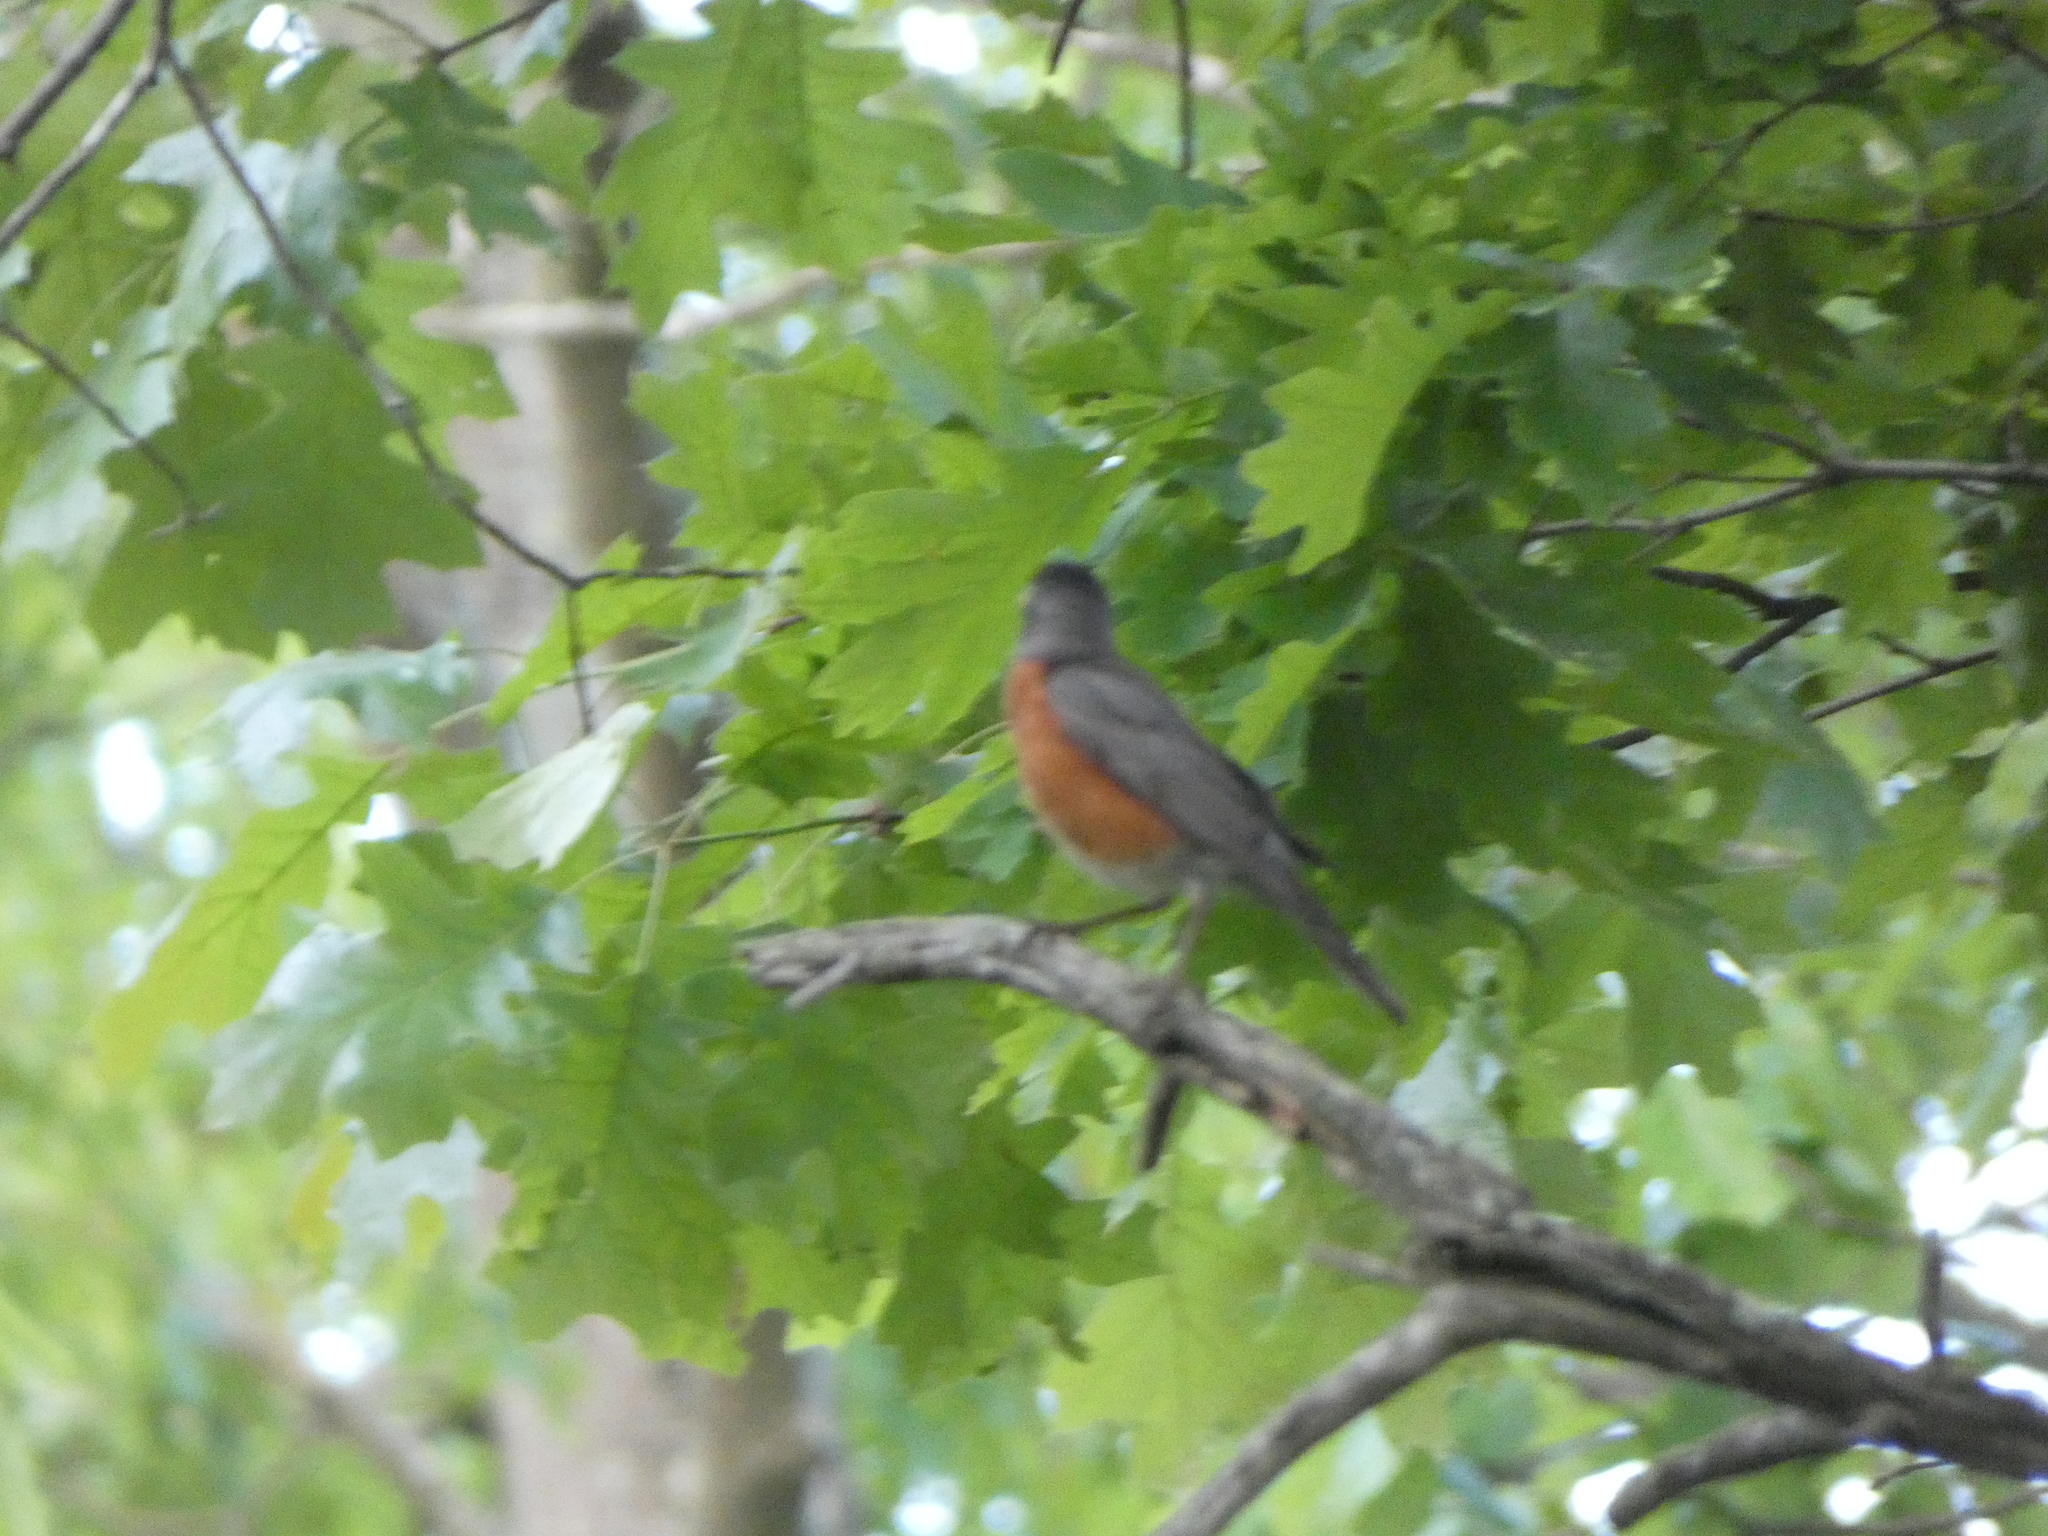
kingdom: Animalia
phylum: Chordata
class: Aves
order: Passeriformes
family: Turdidae
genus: Turdus
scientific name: Turdus migratorius
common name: American robin
